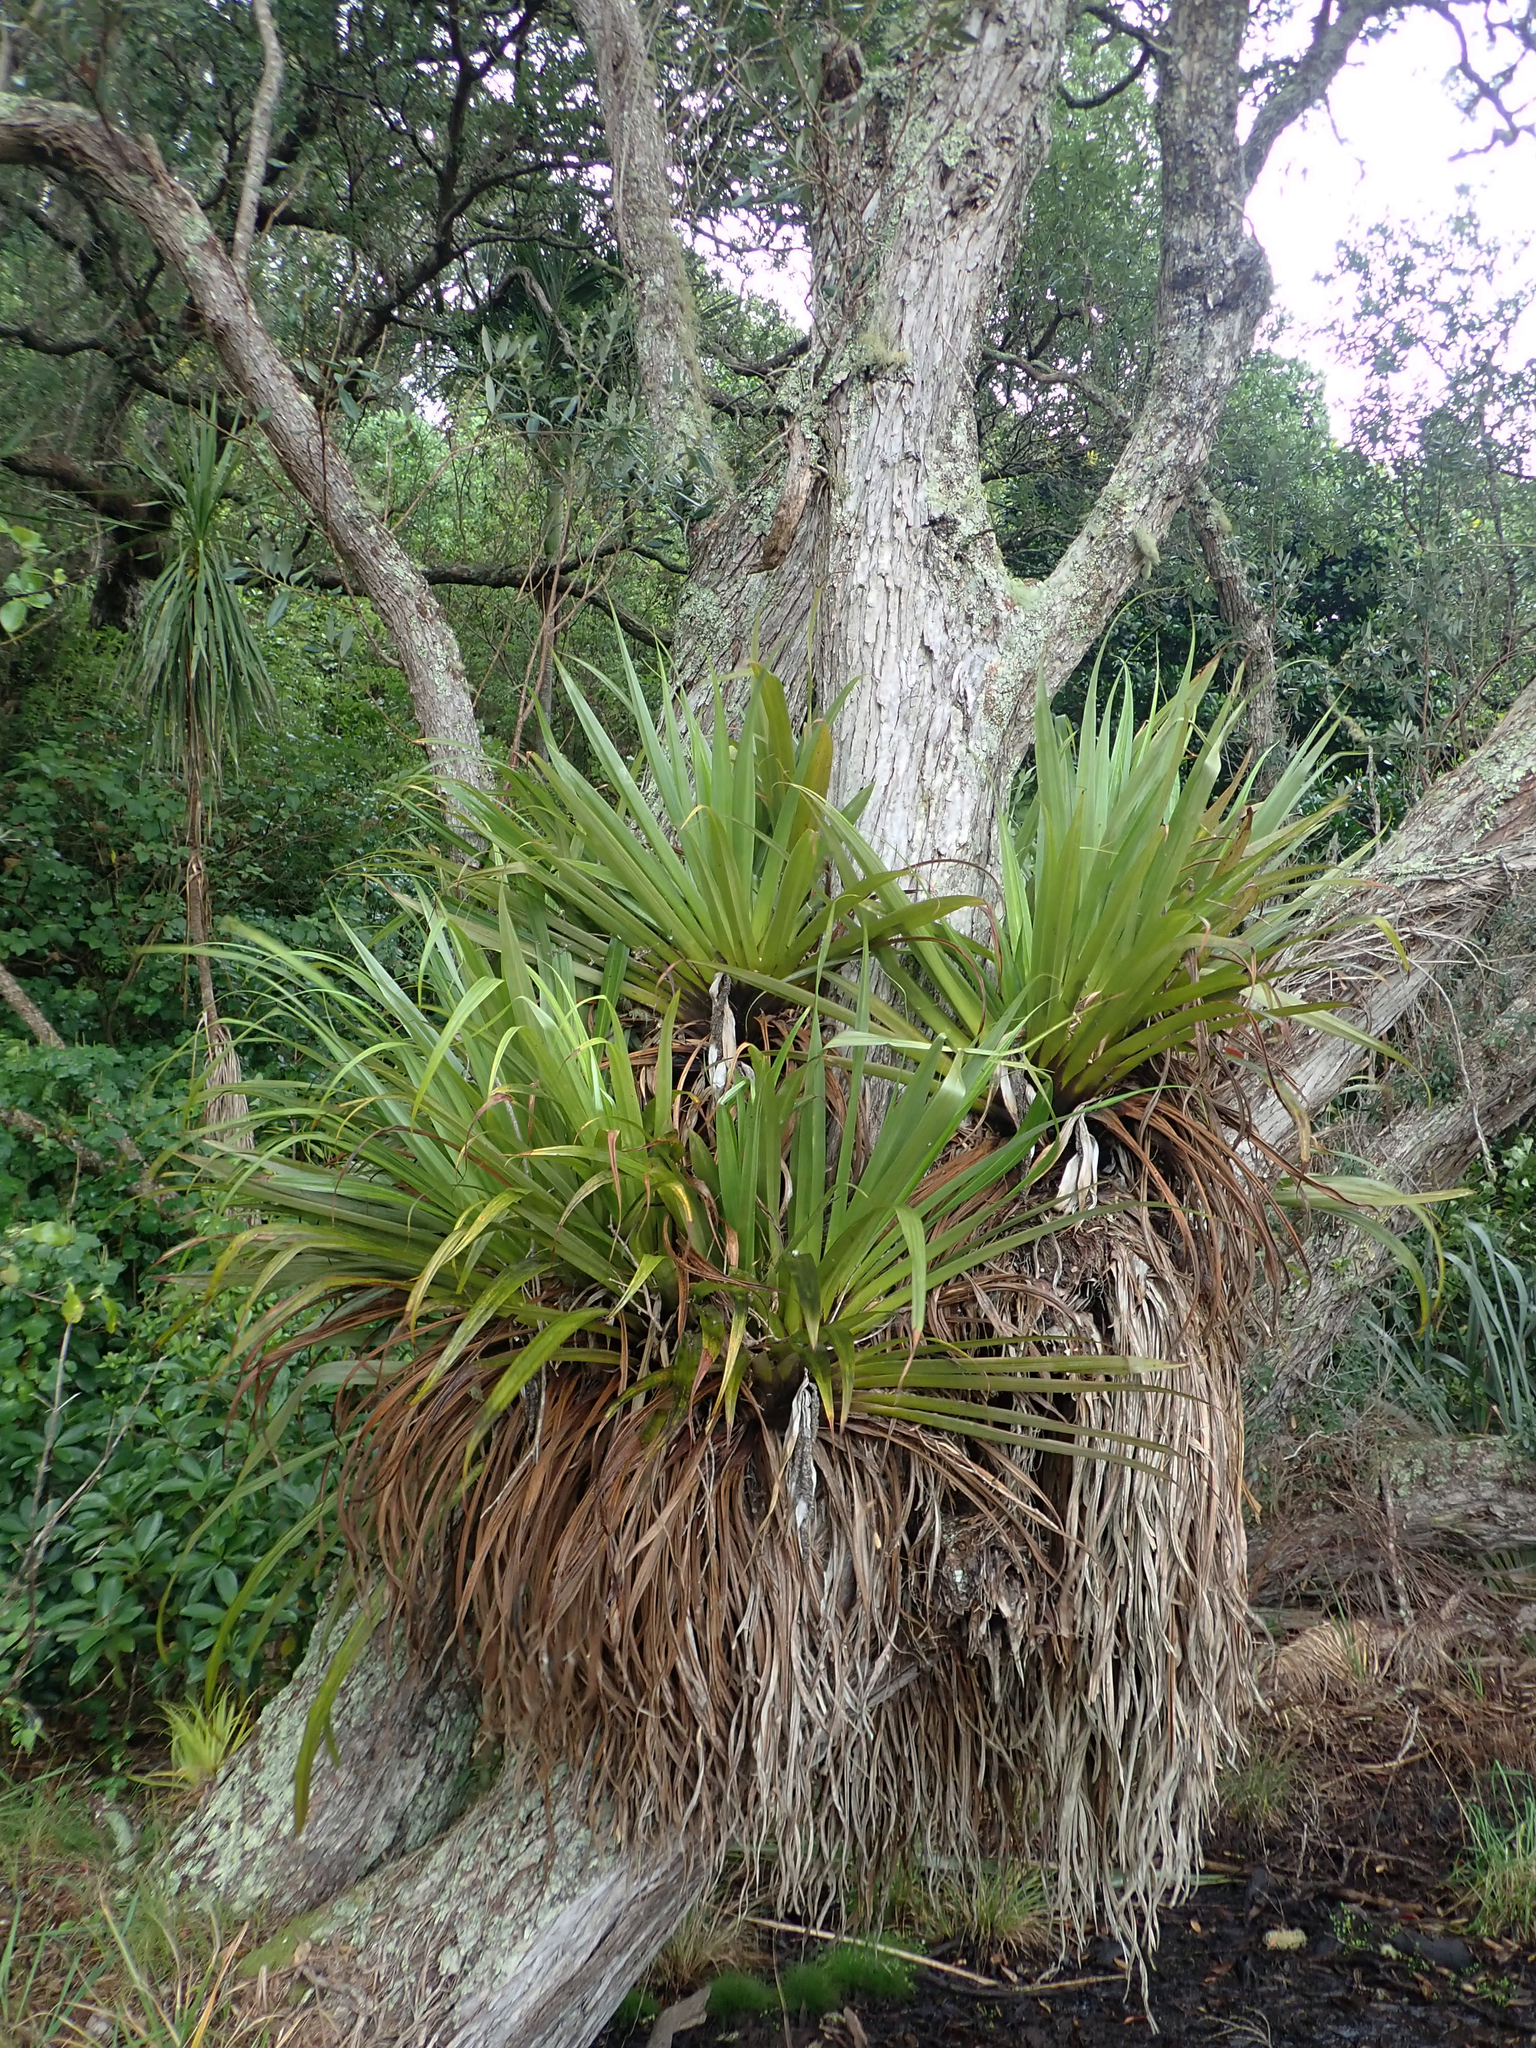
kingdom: Plantae
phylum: Tracheophyta
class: Liliopsida
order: Asparagales
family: Asteliaceae
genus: Astelia
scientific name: Astelia hastata
